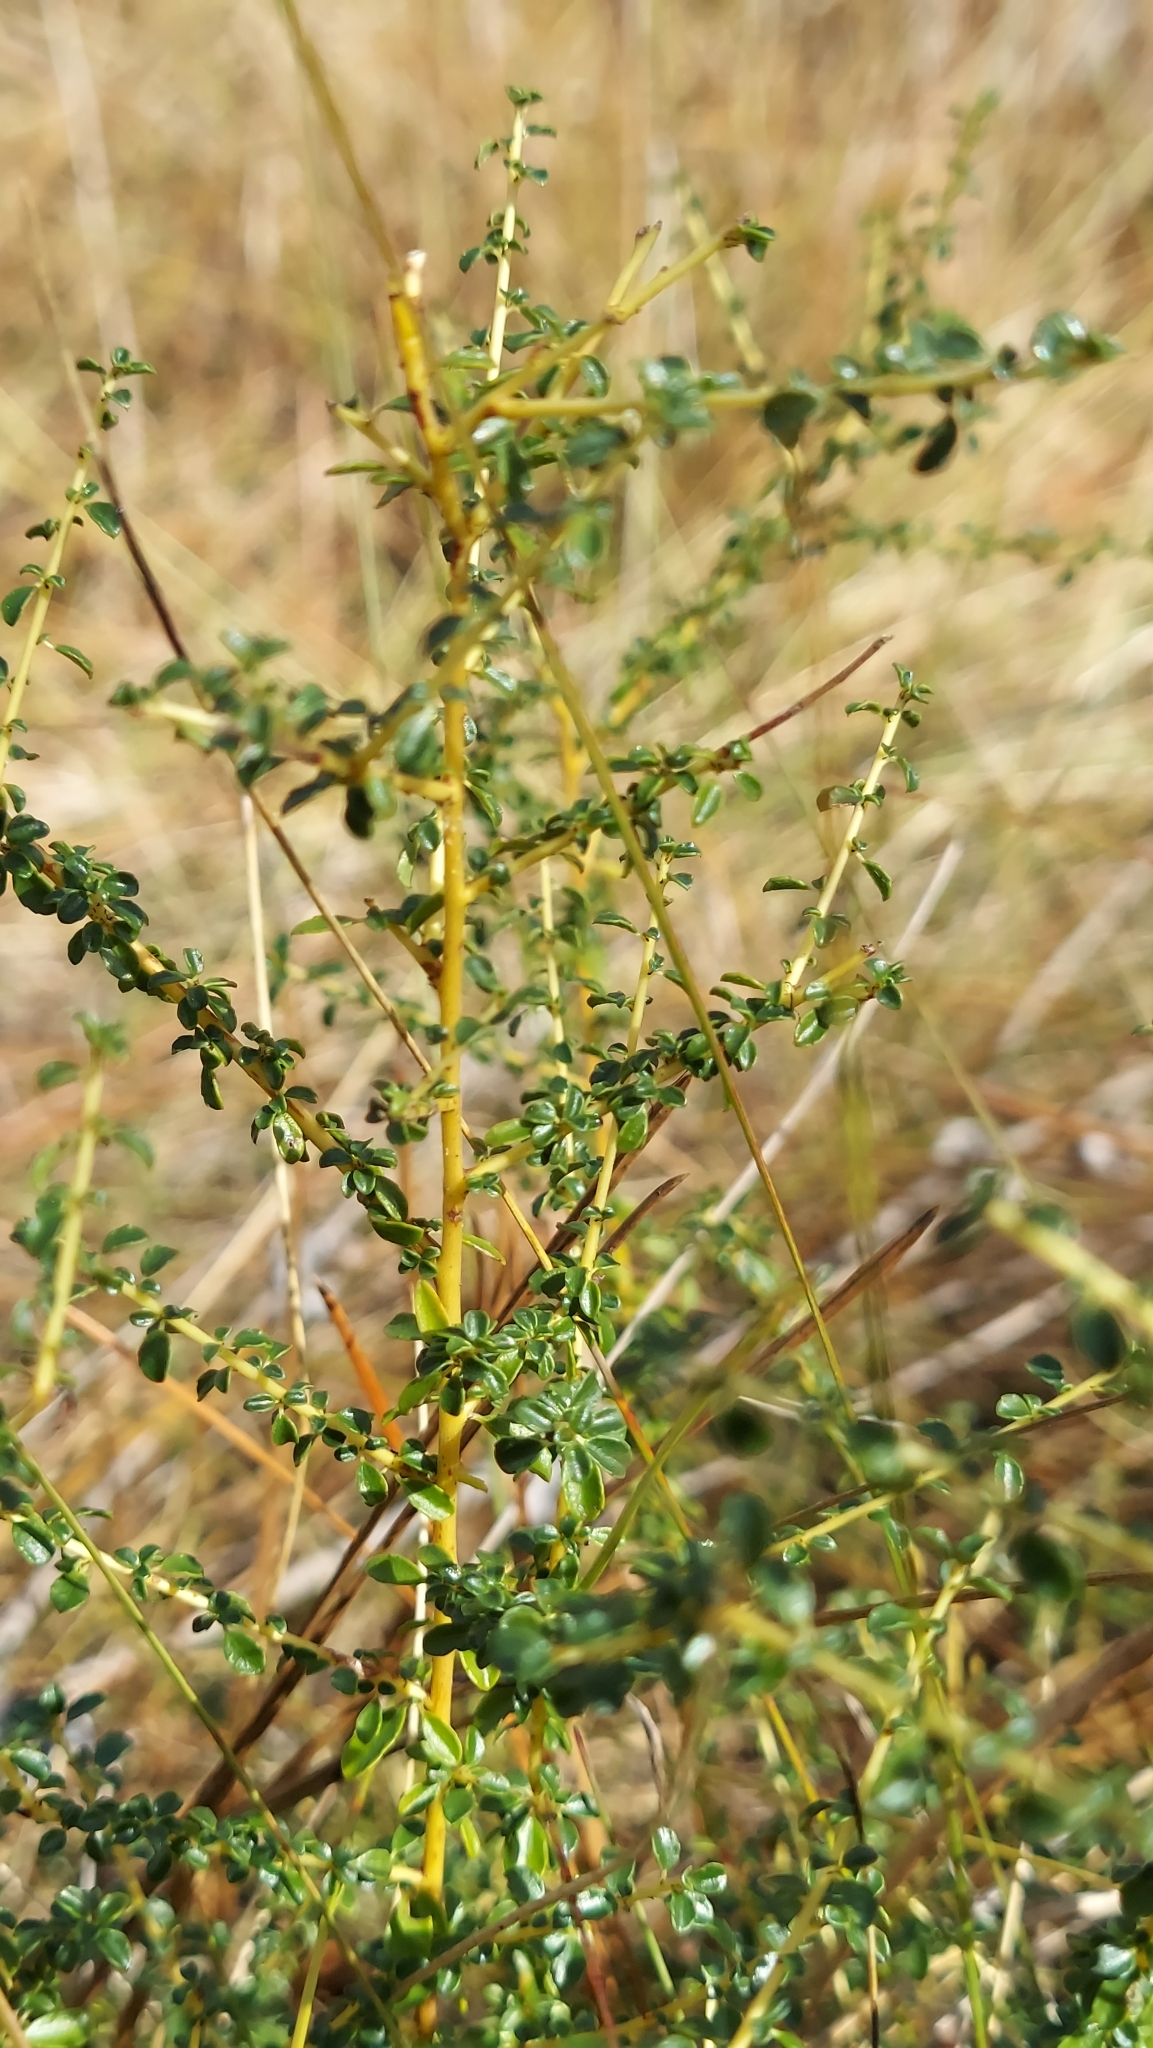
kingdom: Plantae
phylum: Tracheophyta
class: Magnoliopsida
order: Rosales
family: Rhamnaceae
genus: Ceanothus
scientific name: Ceanothus microphyllus
